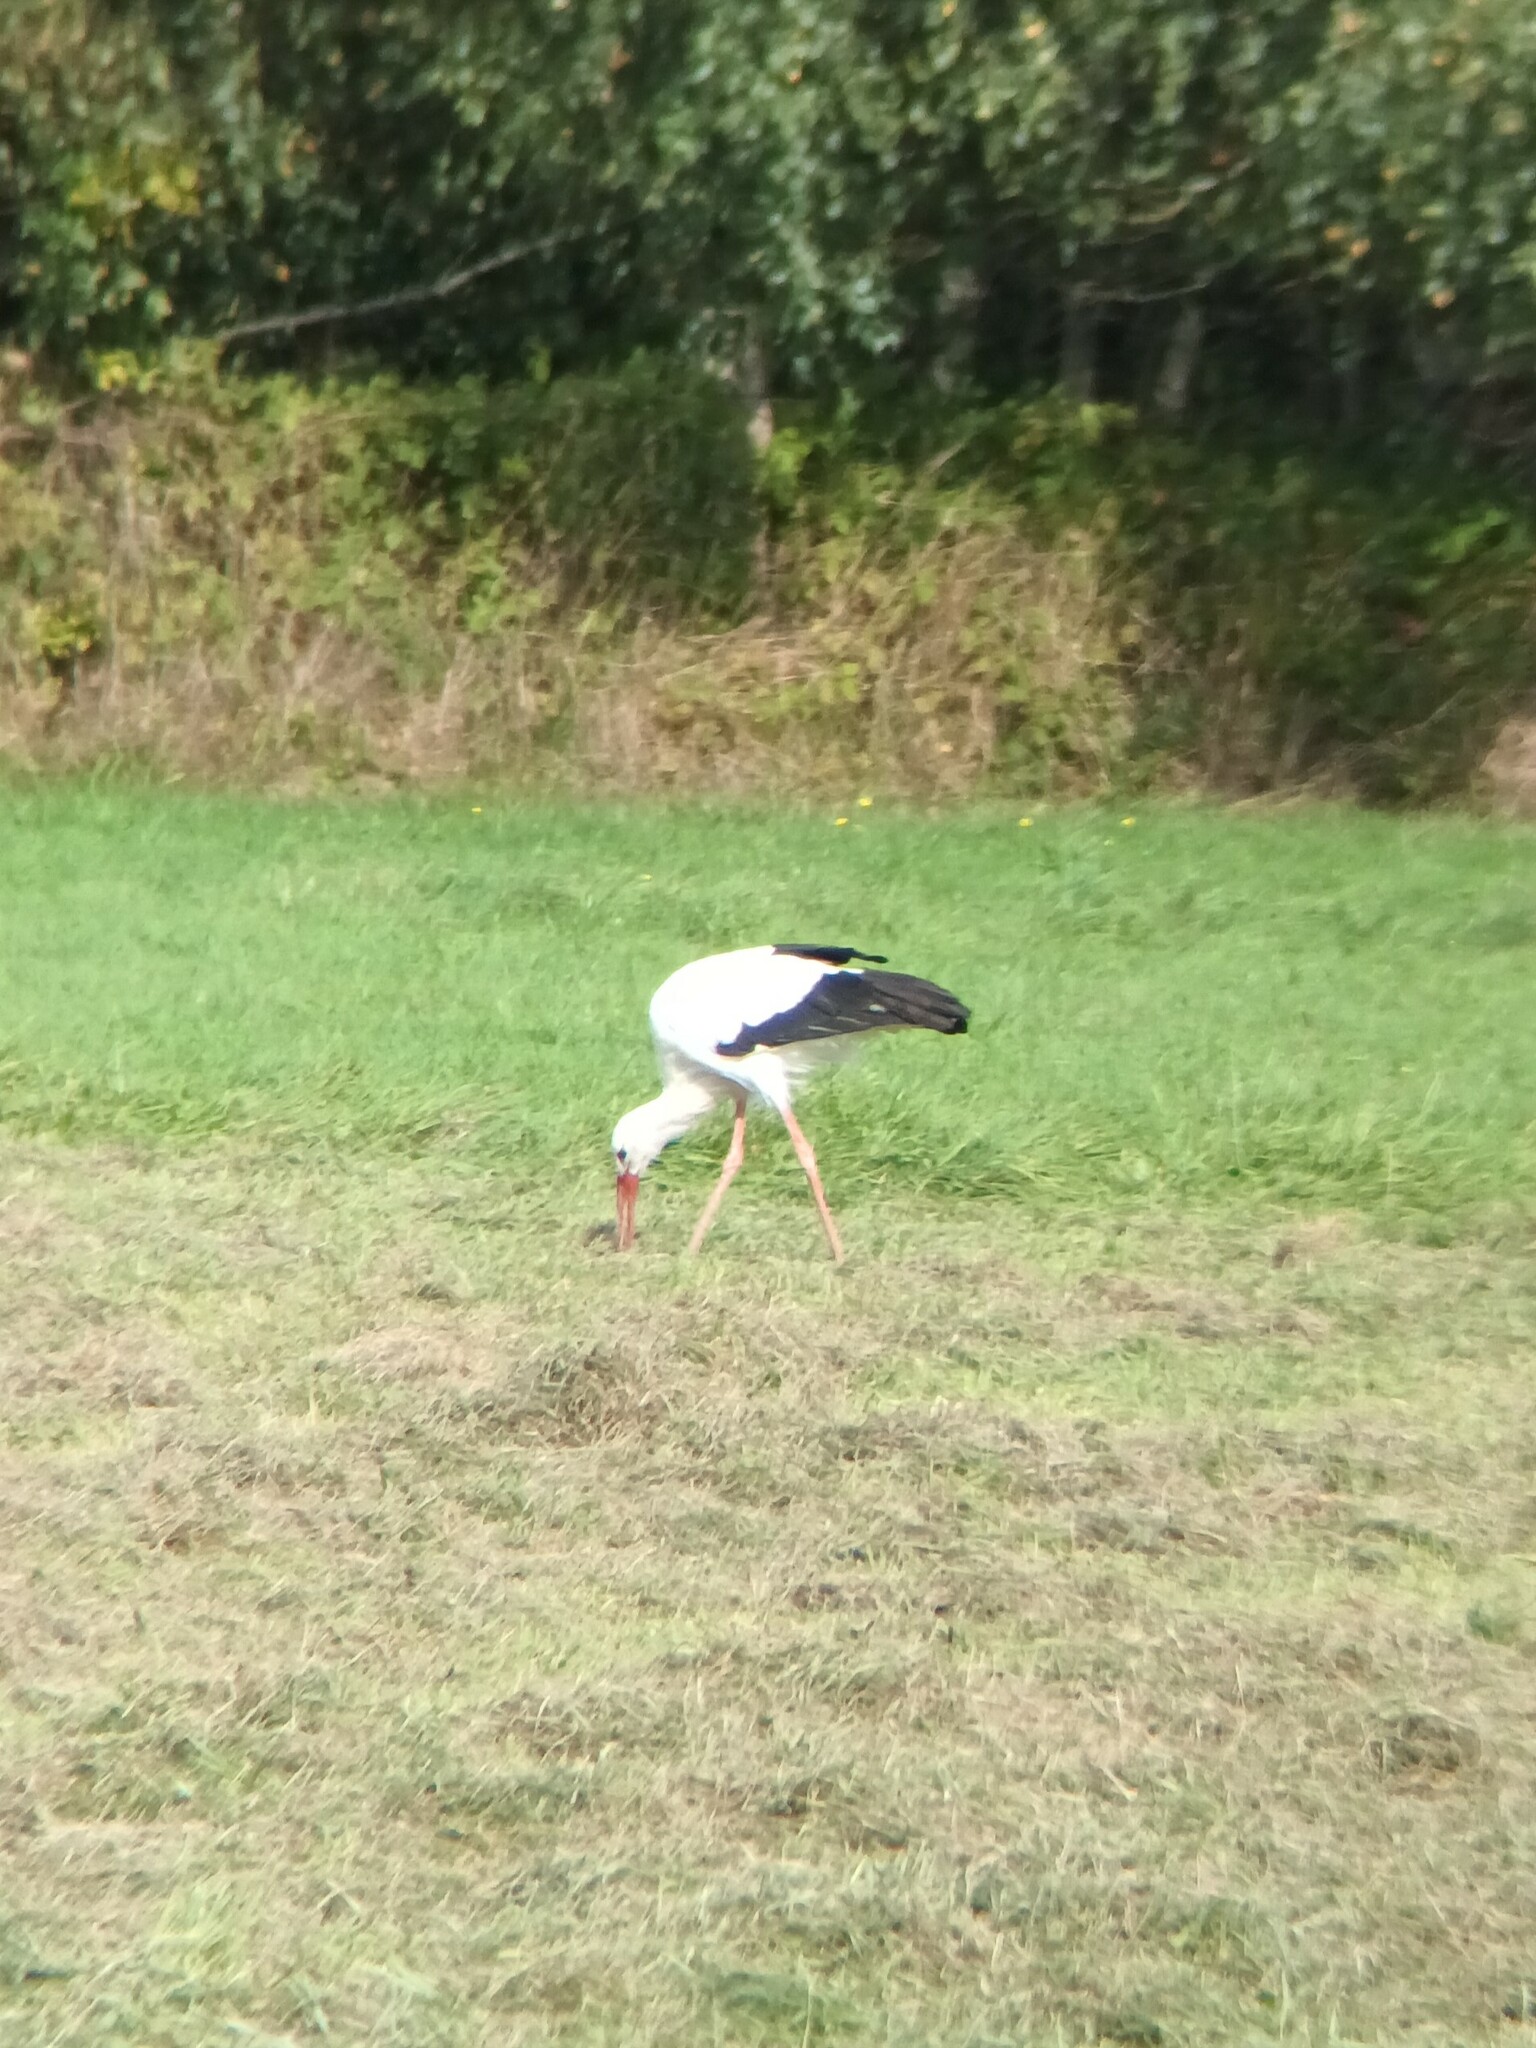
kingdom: Animalia
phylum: Chordata
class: Aves
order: Ciconiiformes
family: Ciconiidae
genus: Ciconia
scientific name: Ciconia ciconia
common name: White stork
